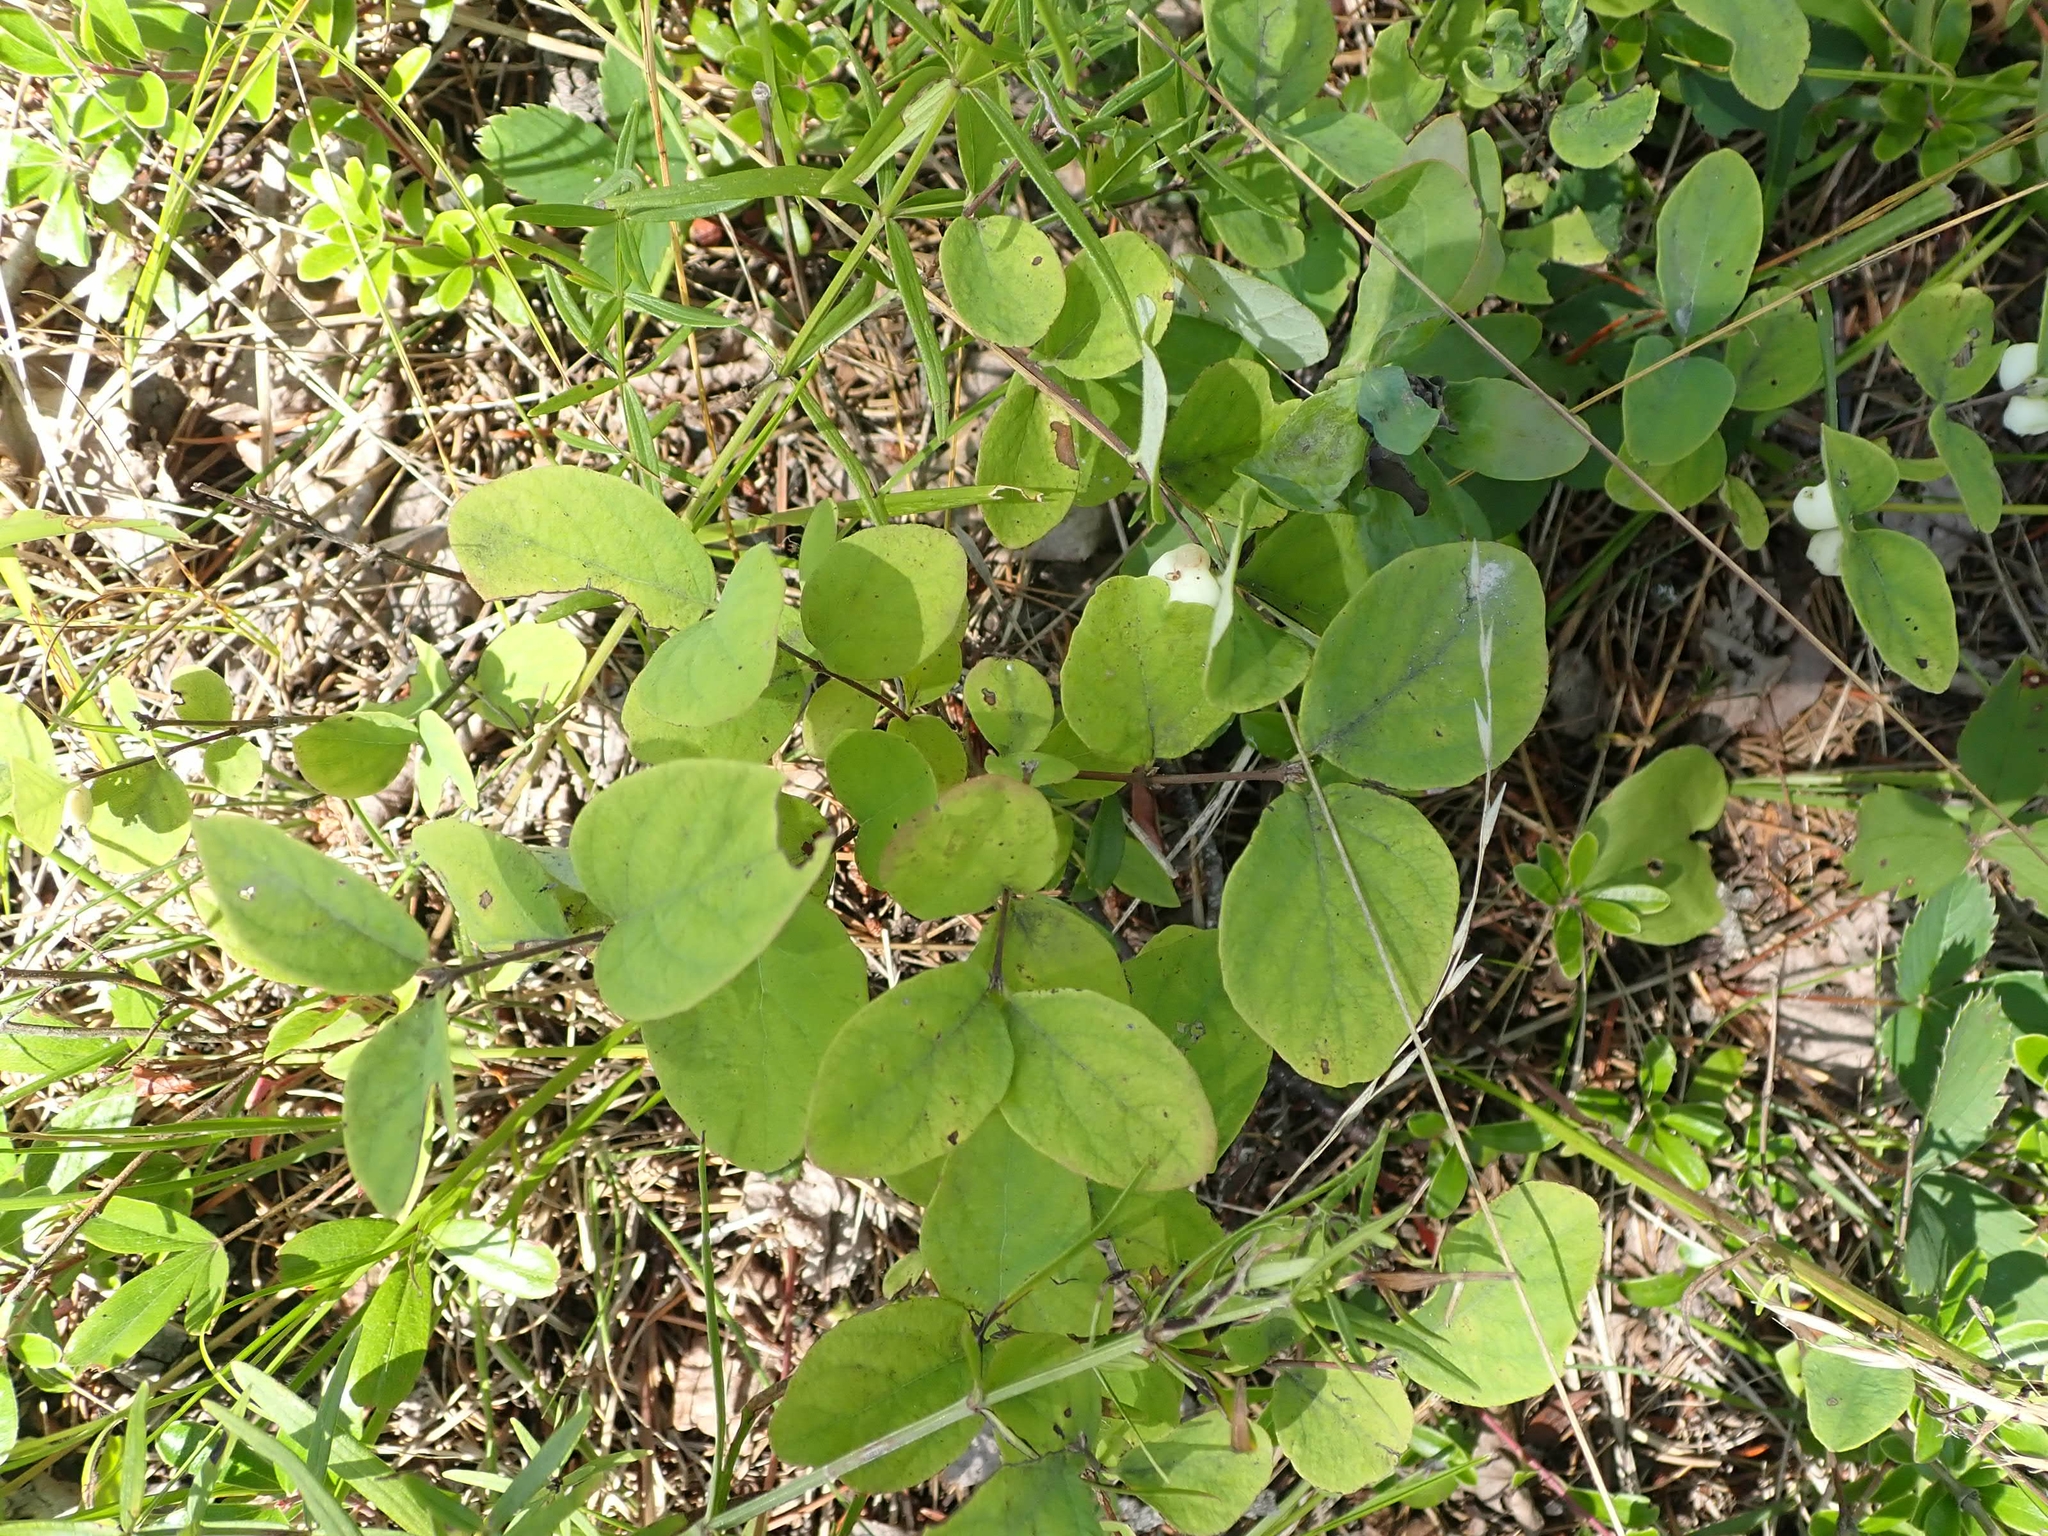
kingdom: Plantae
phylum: Tracheophyta
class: Magnoliopsida
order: Dipsacales
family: Caprifoliaceae
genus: Symphoricarpos
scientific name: Symphoricarpos albus
